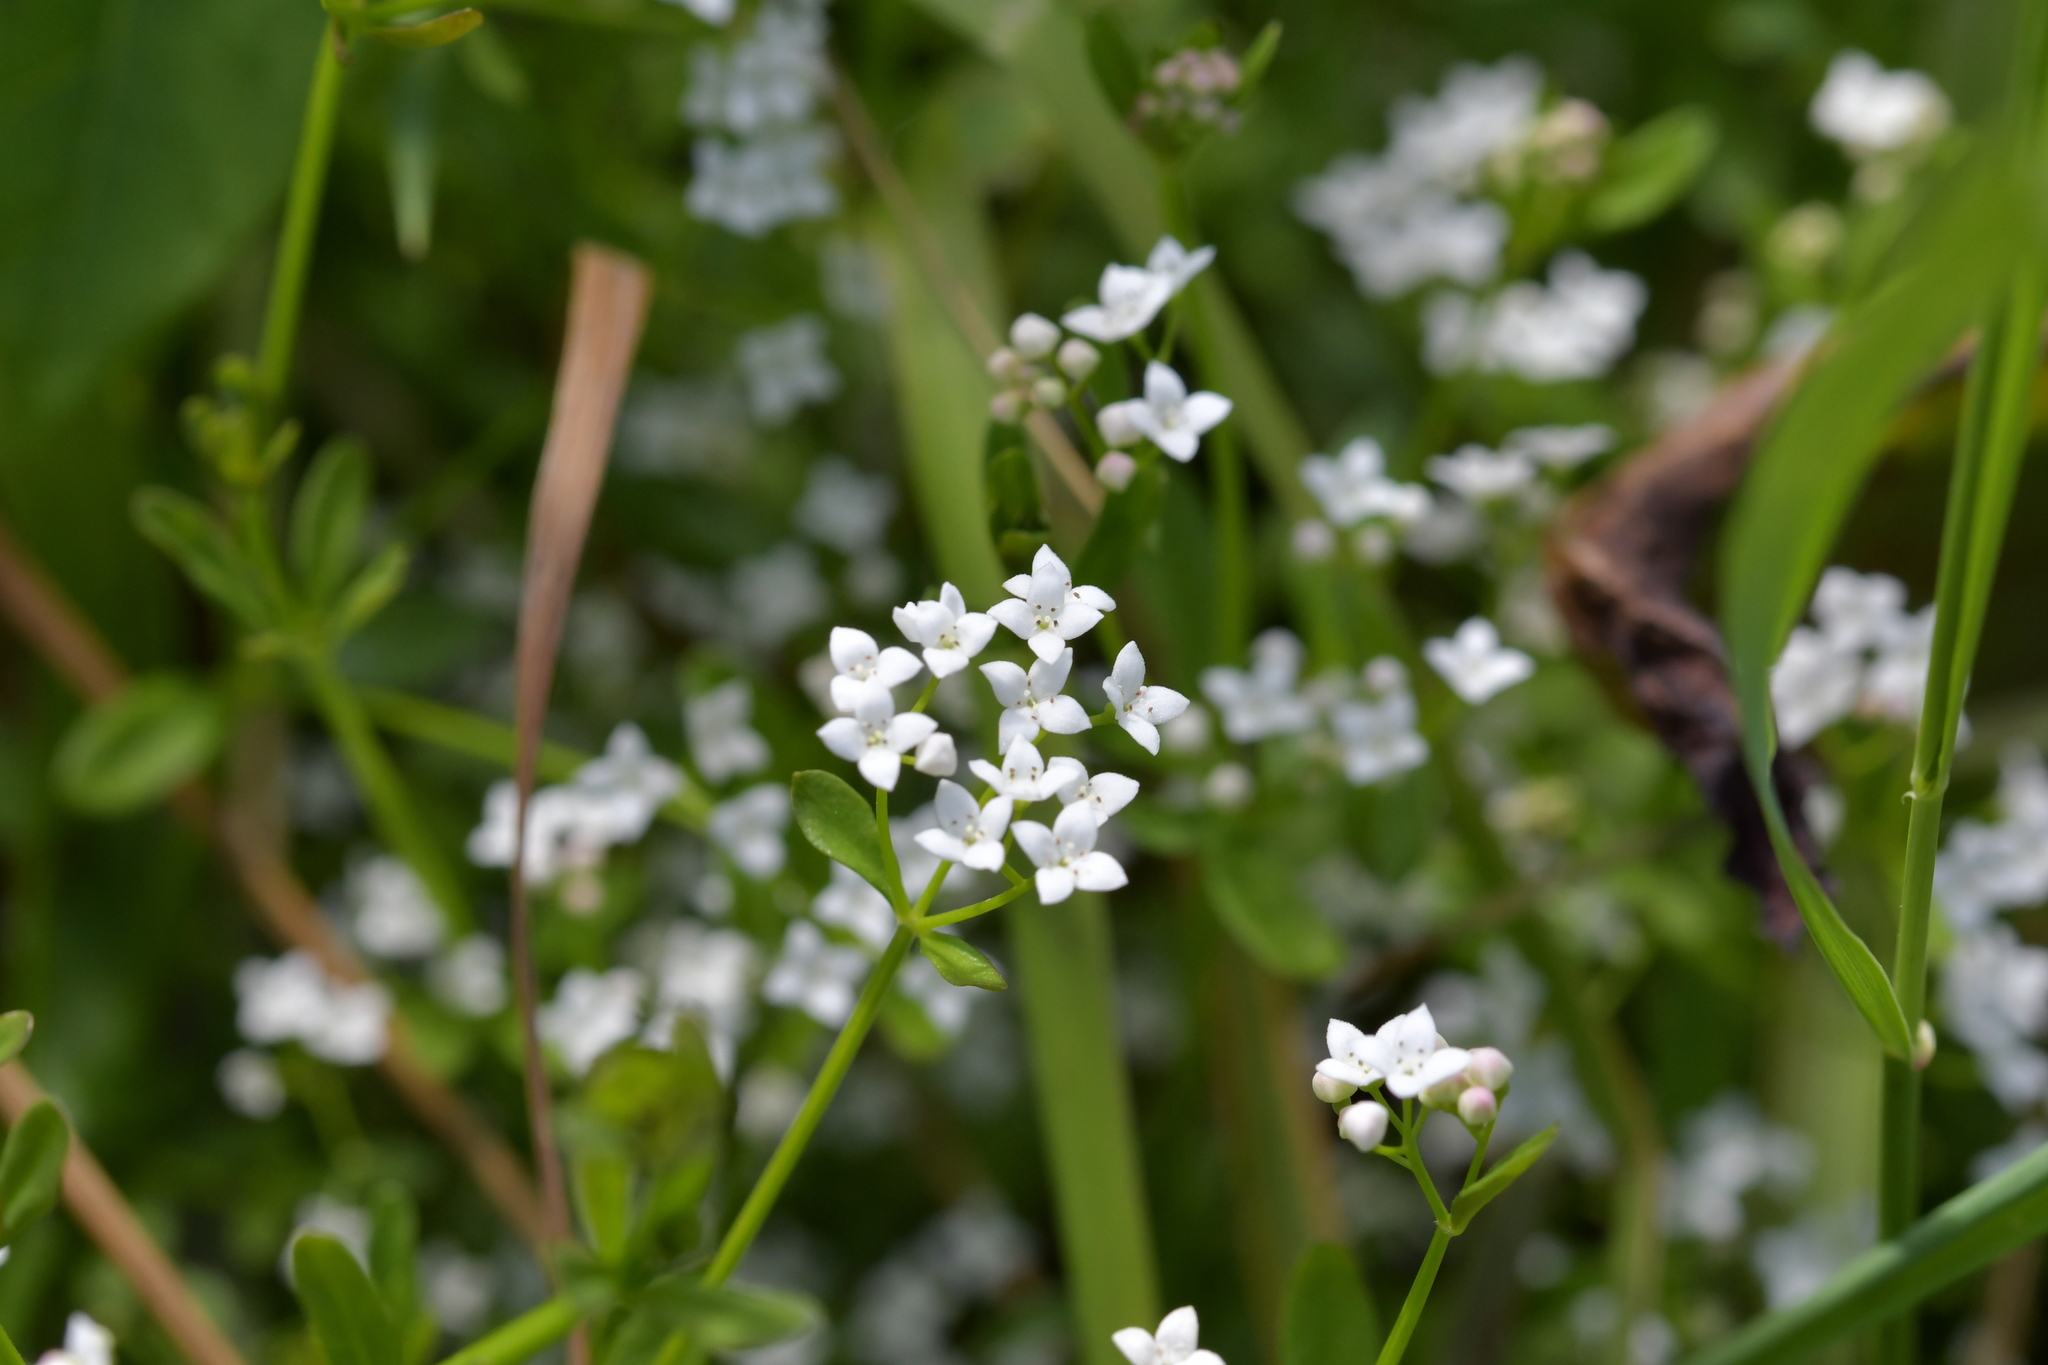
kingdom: Plantae
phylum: Tracheophyta
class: Magnoliopsida
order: Gentianales
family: Rubiaceae
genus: Galium
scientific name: Galium palustre
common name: Common marsh-bedstraw
